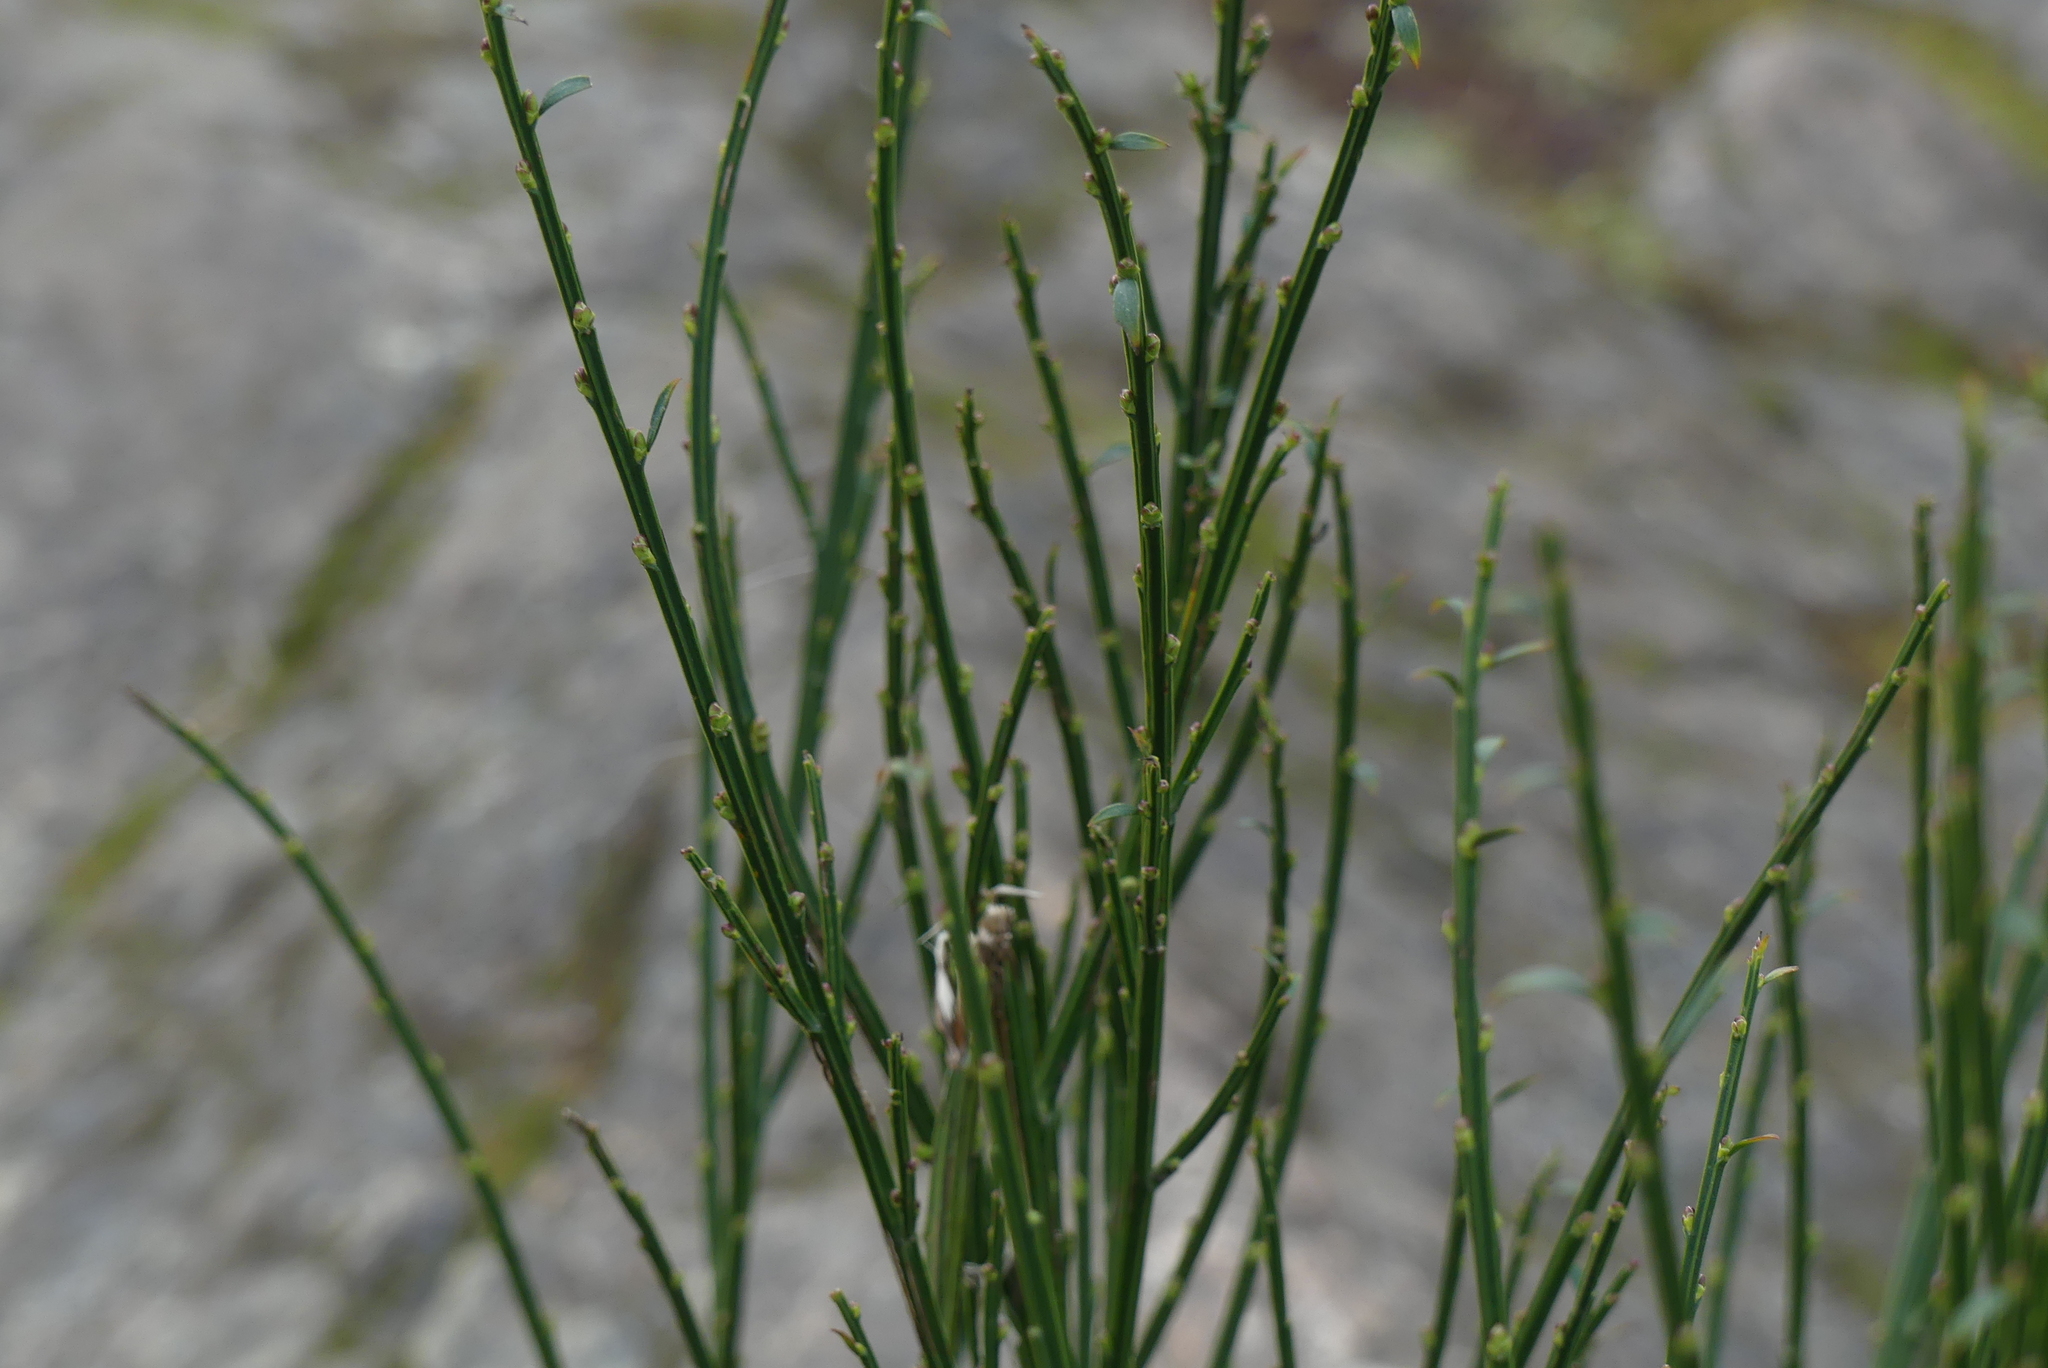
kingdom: Plantae
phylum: Tracheophyta
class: Magnoliopsida
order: Fabales
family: Fabaceae
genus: Cytisus
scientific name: Cytisus scoparius
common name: Scotch broom
